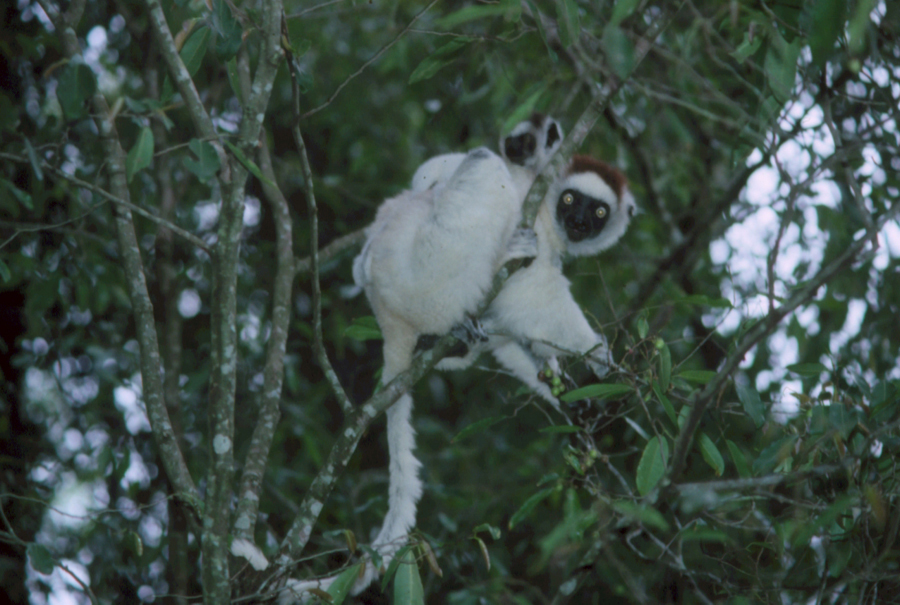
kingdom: Animalia
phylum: Chordata
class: Mammalia
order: Primates
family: Indriidae
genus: Propithecus
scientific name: Propithecus verreauxi
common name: Verreaux's sifaka
